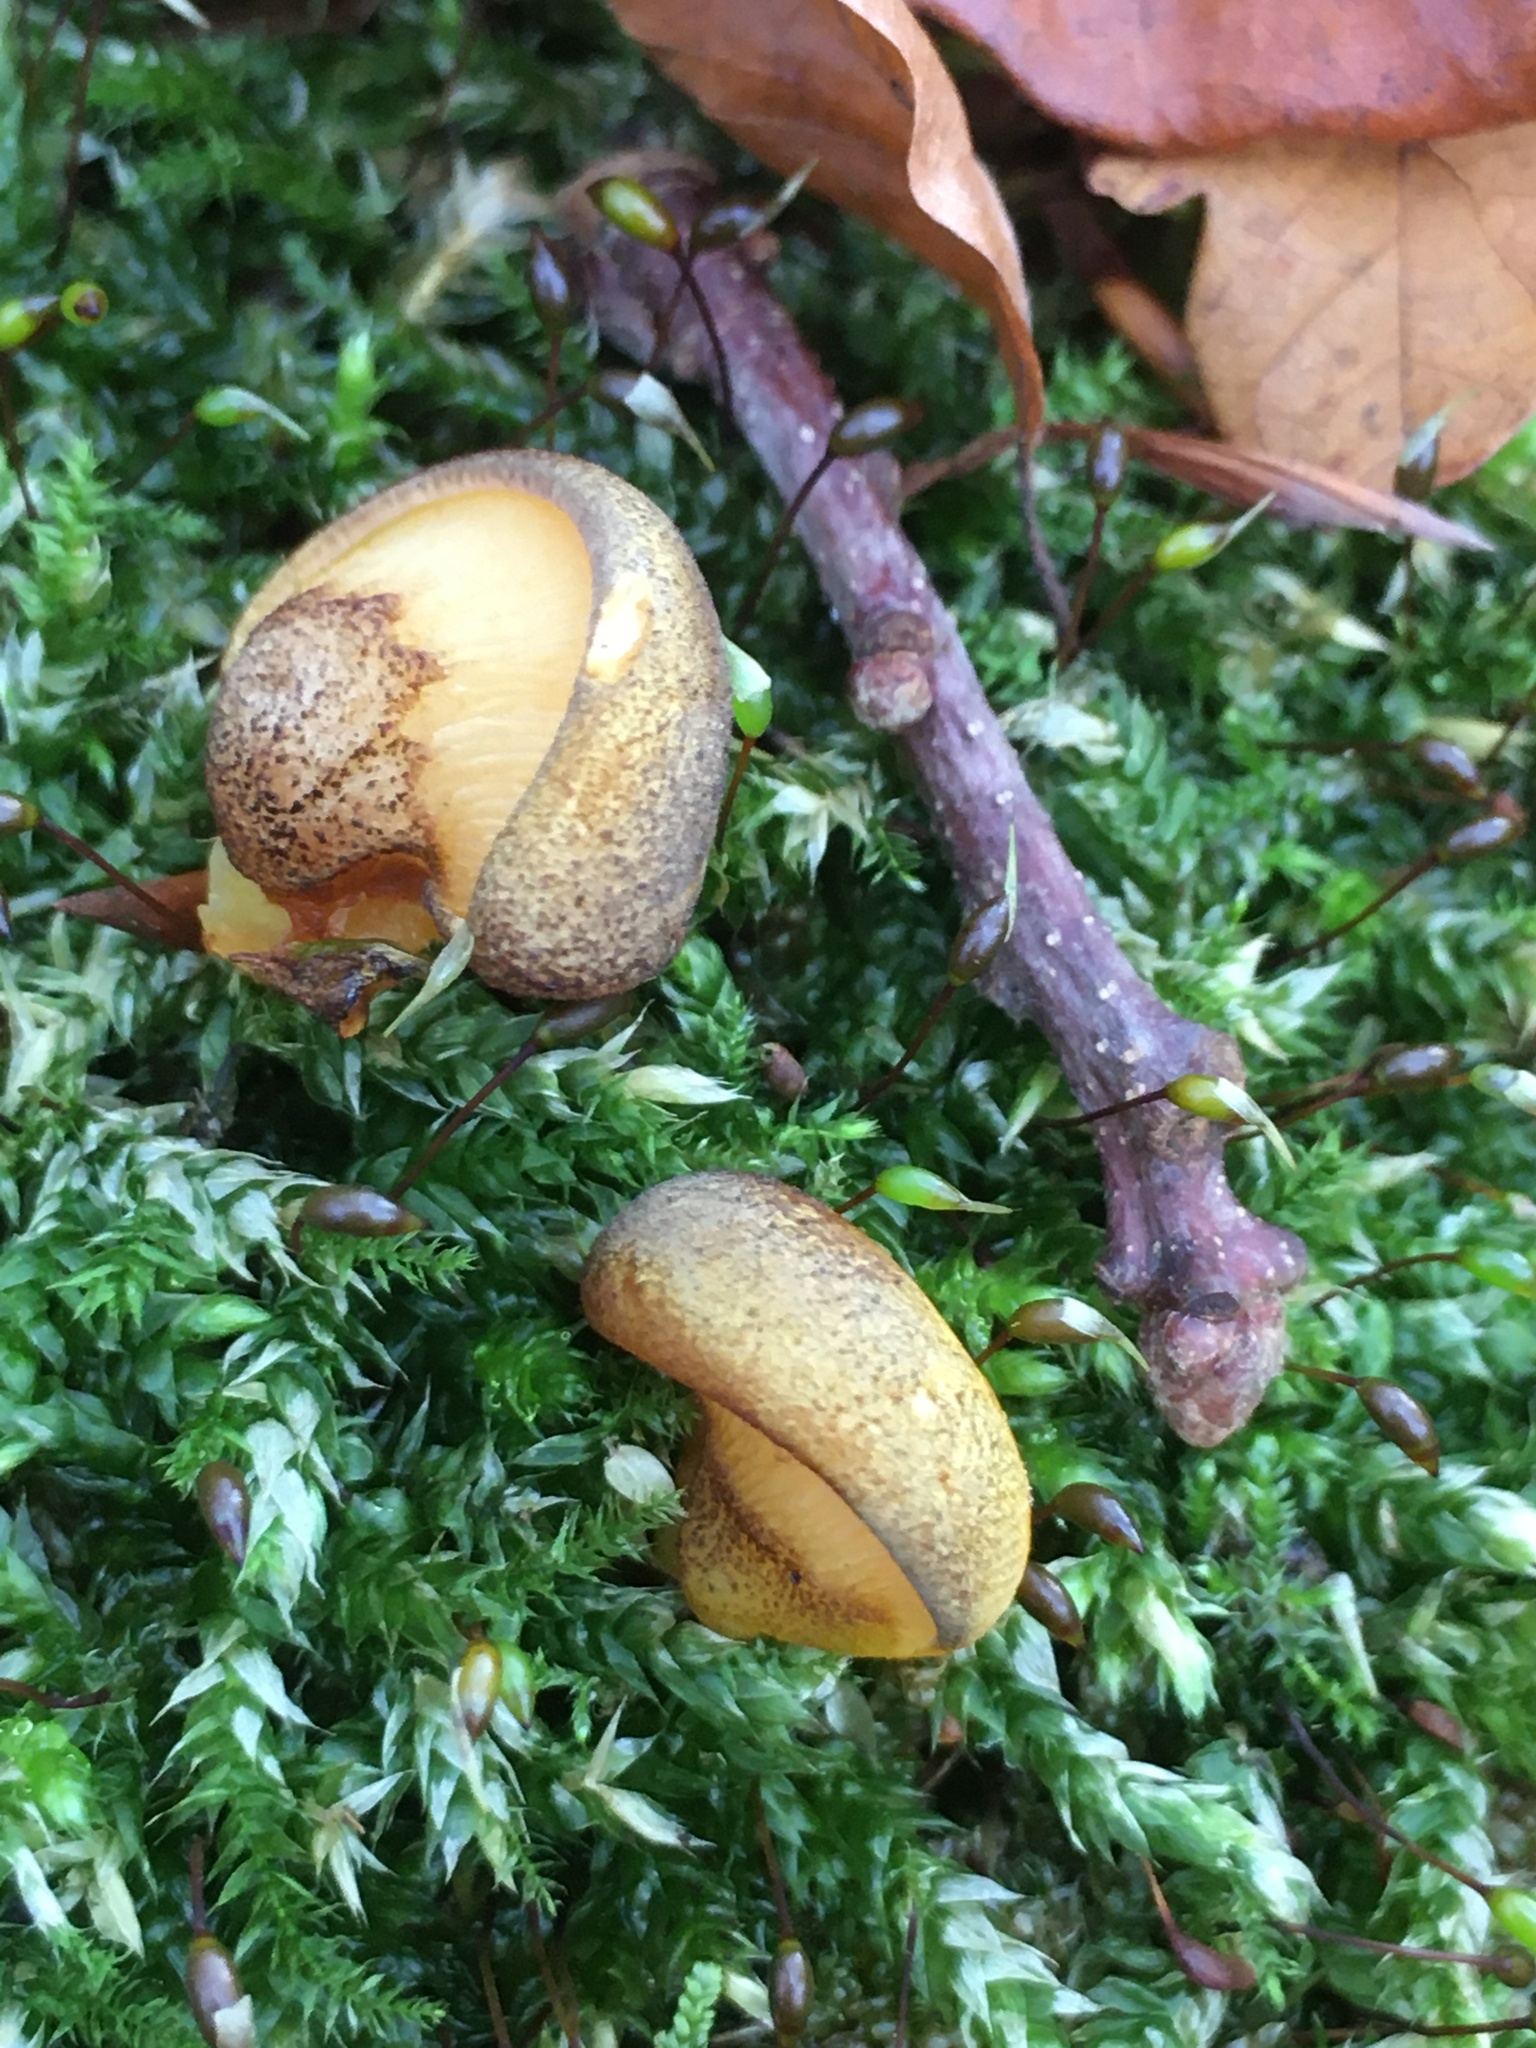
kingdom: Fungi
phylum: Basidiomycota
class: Agaricomycetes
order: Agaricales
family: Sarcomyxaceae
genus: Sarcomyxa
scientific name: Sarcomyxa serotina
